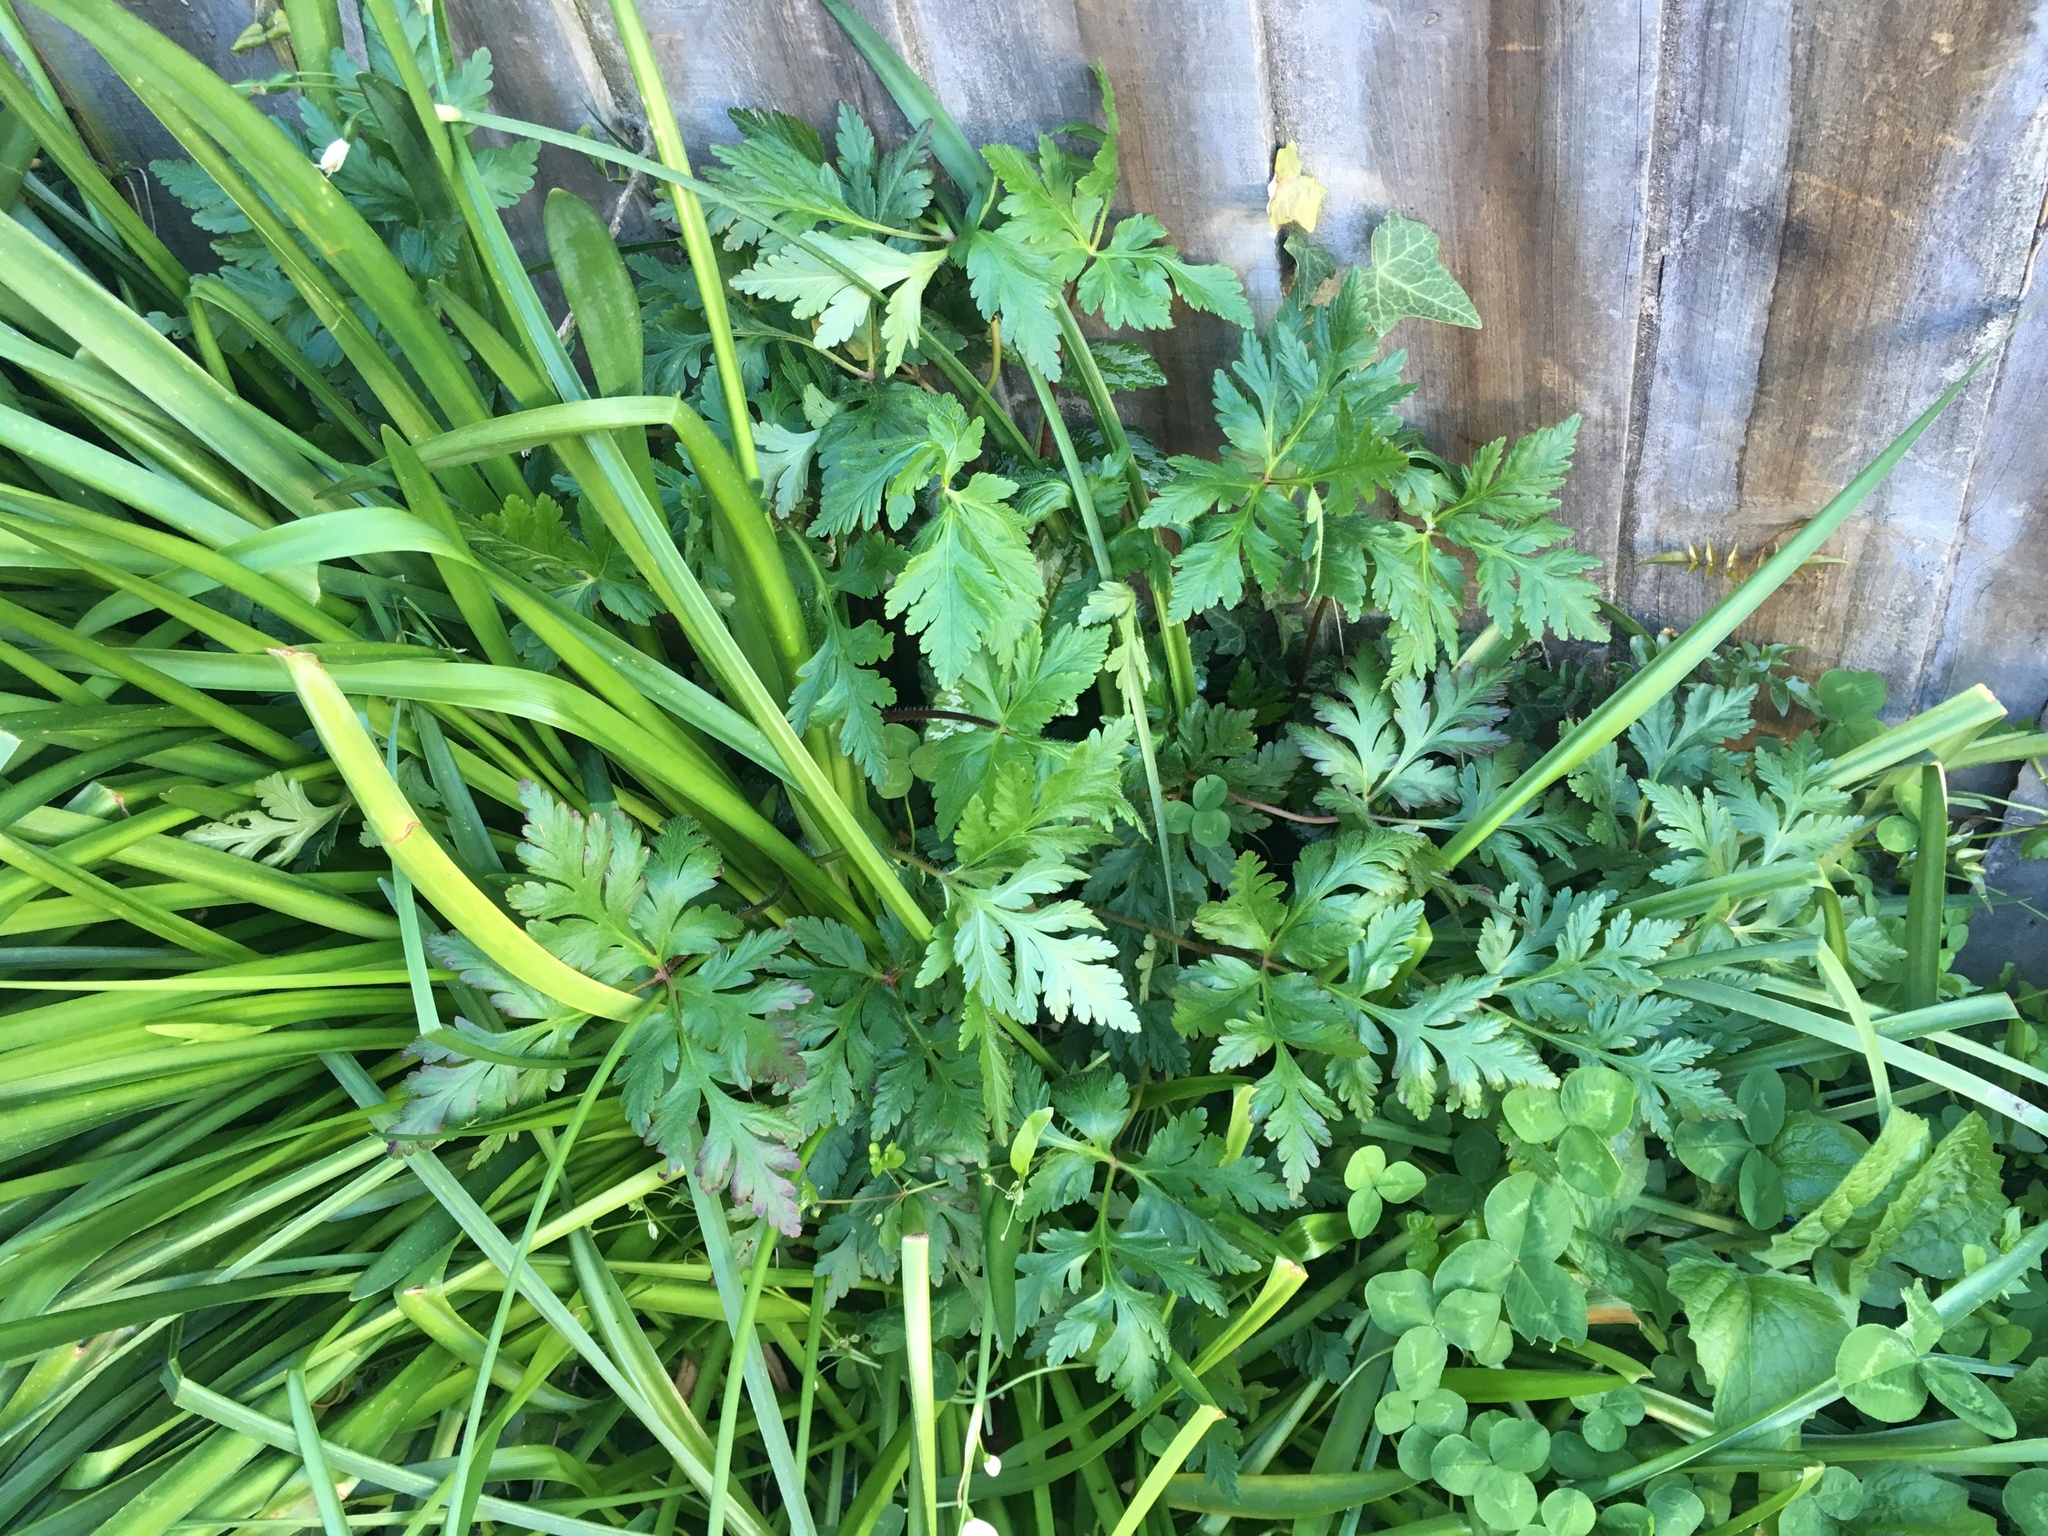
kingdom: Plantae
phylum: Tracheophyta
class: Magnoliopsida
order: Geraniales
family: Geraniaceae
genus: Geranium
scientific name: Geranium yeoi
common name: Greater herb robert
